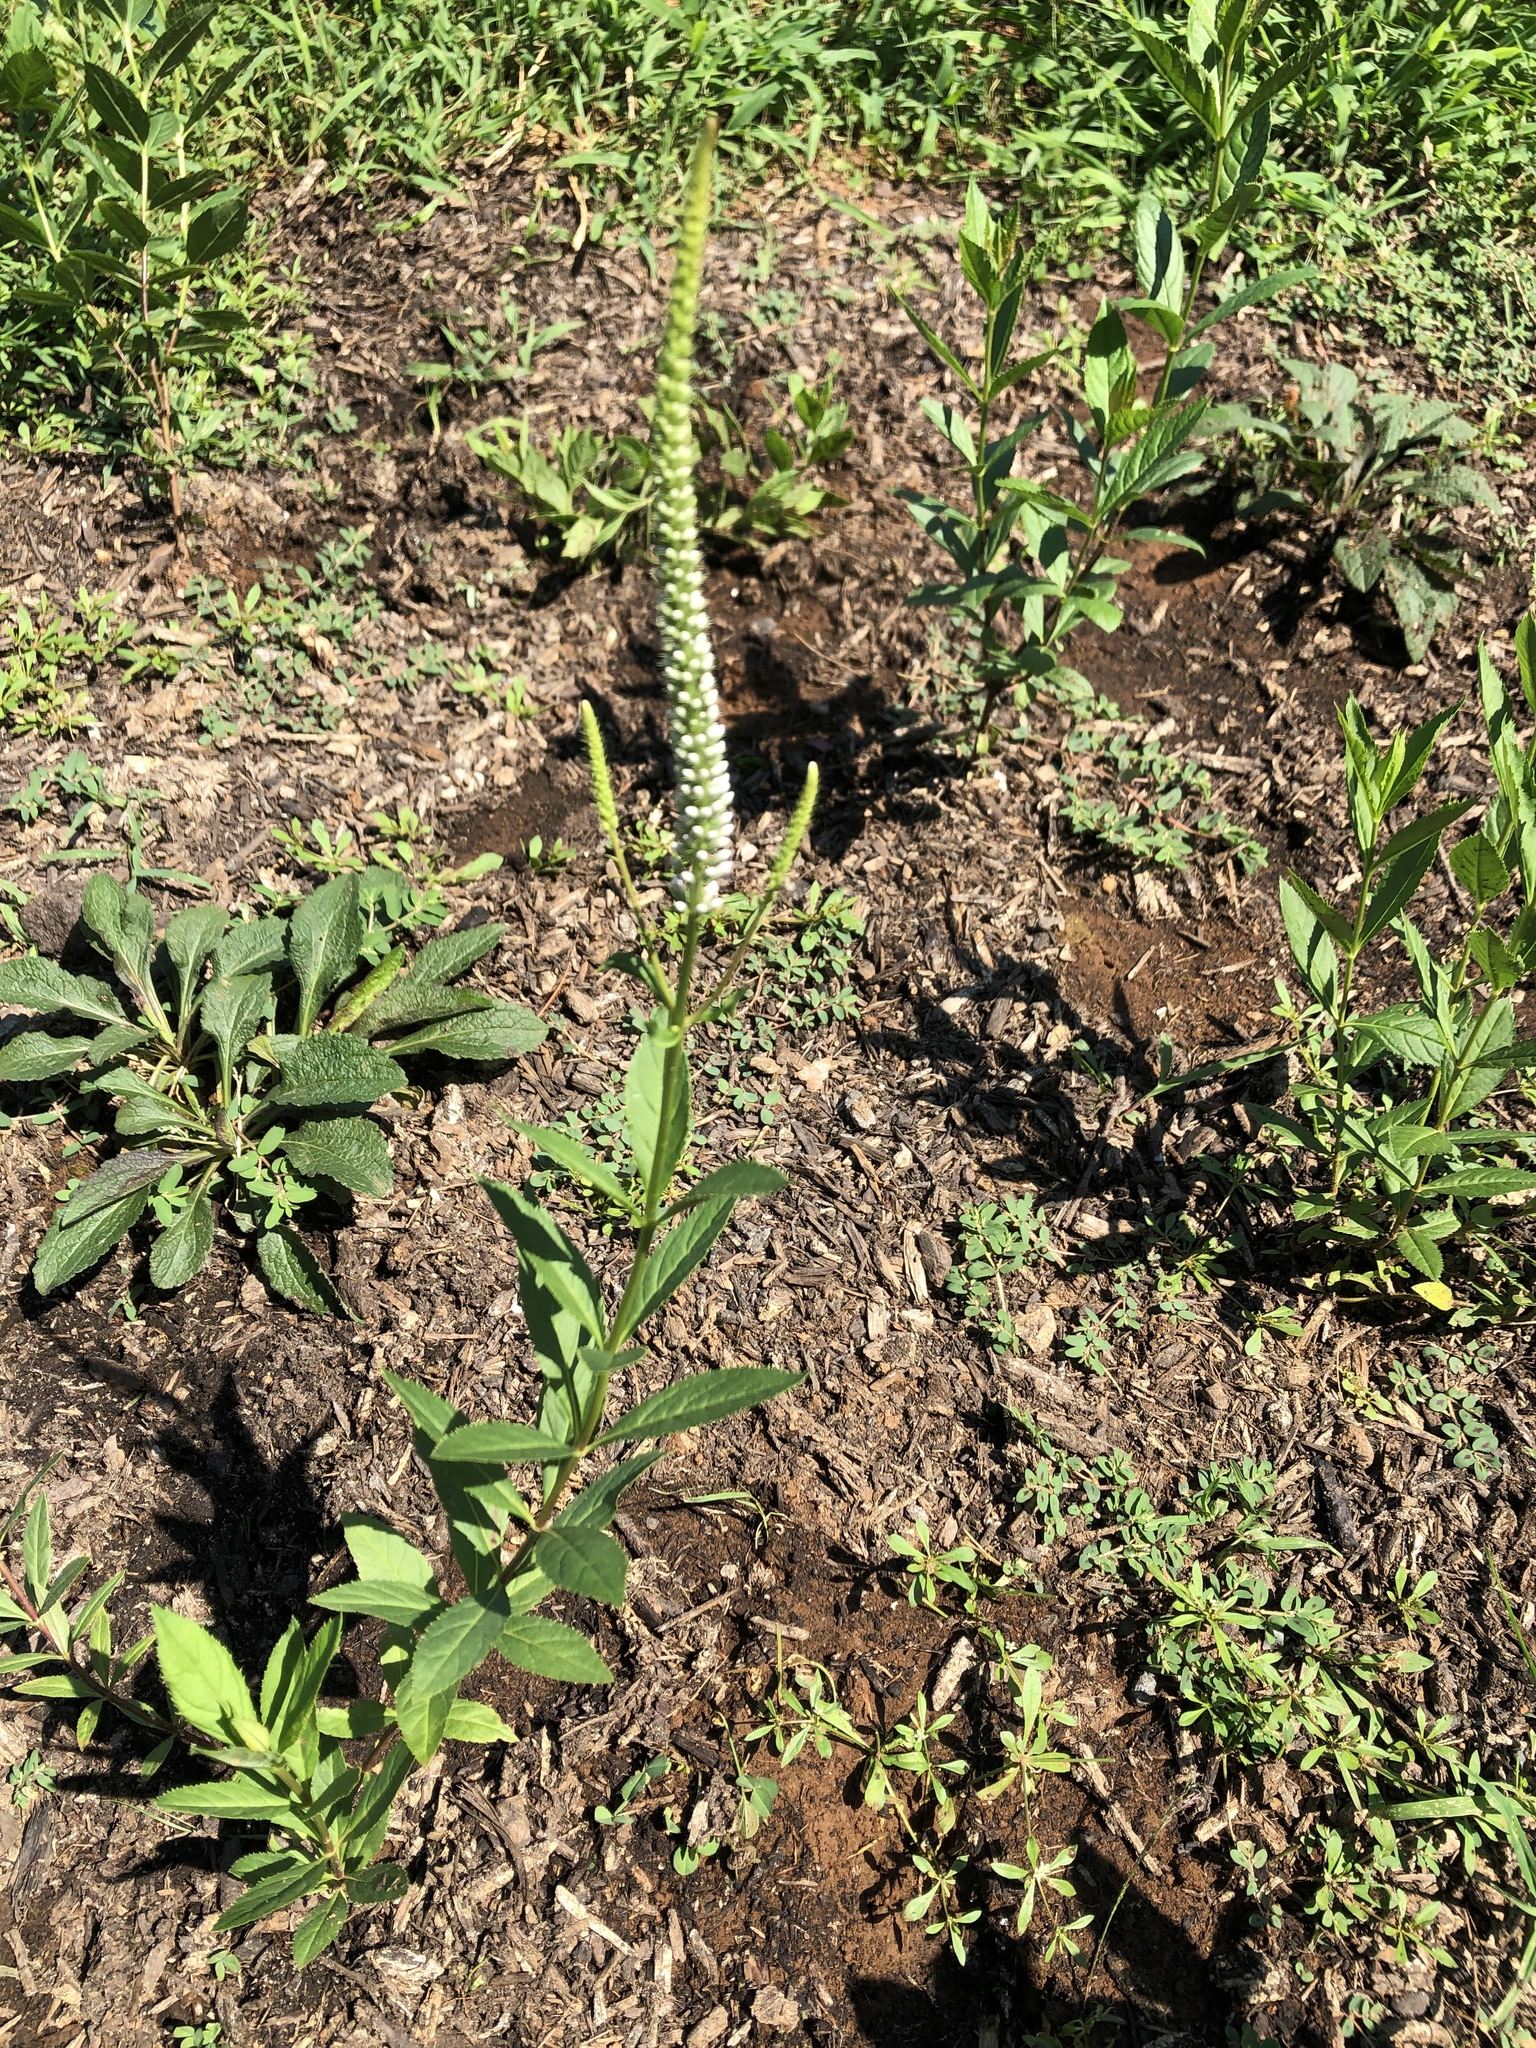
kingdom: Plantae
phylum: Tracheophyta
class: Magnoliopsida
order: Lamiales
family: Plantaginaceae
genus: Veronicastrum
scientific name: Veronicastrum virginicum
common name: Blackroot
